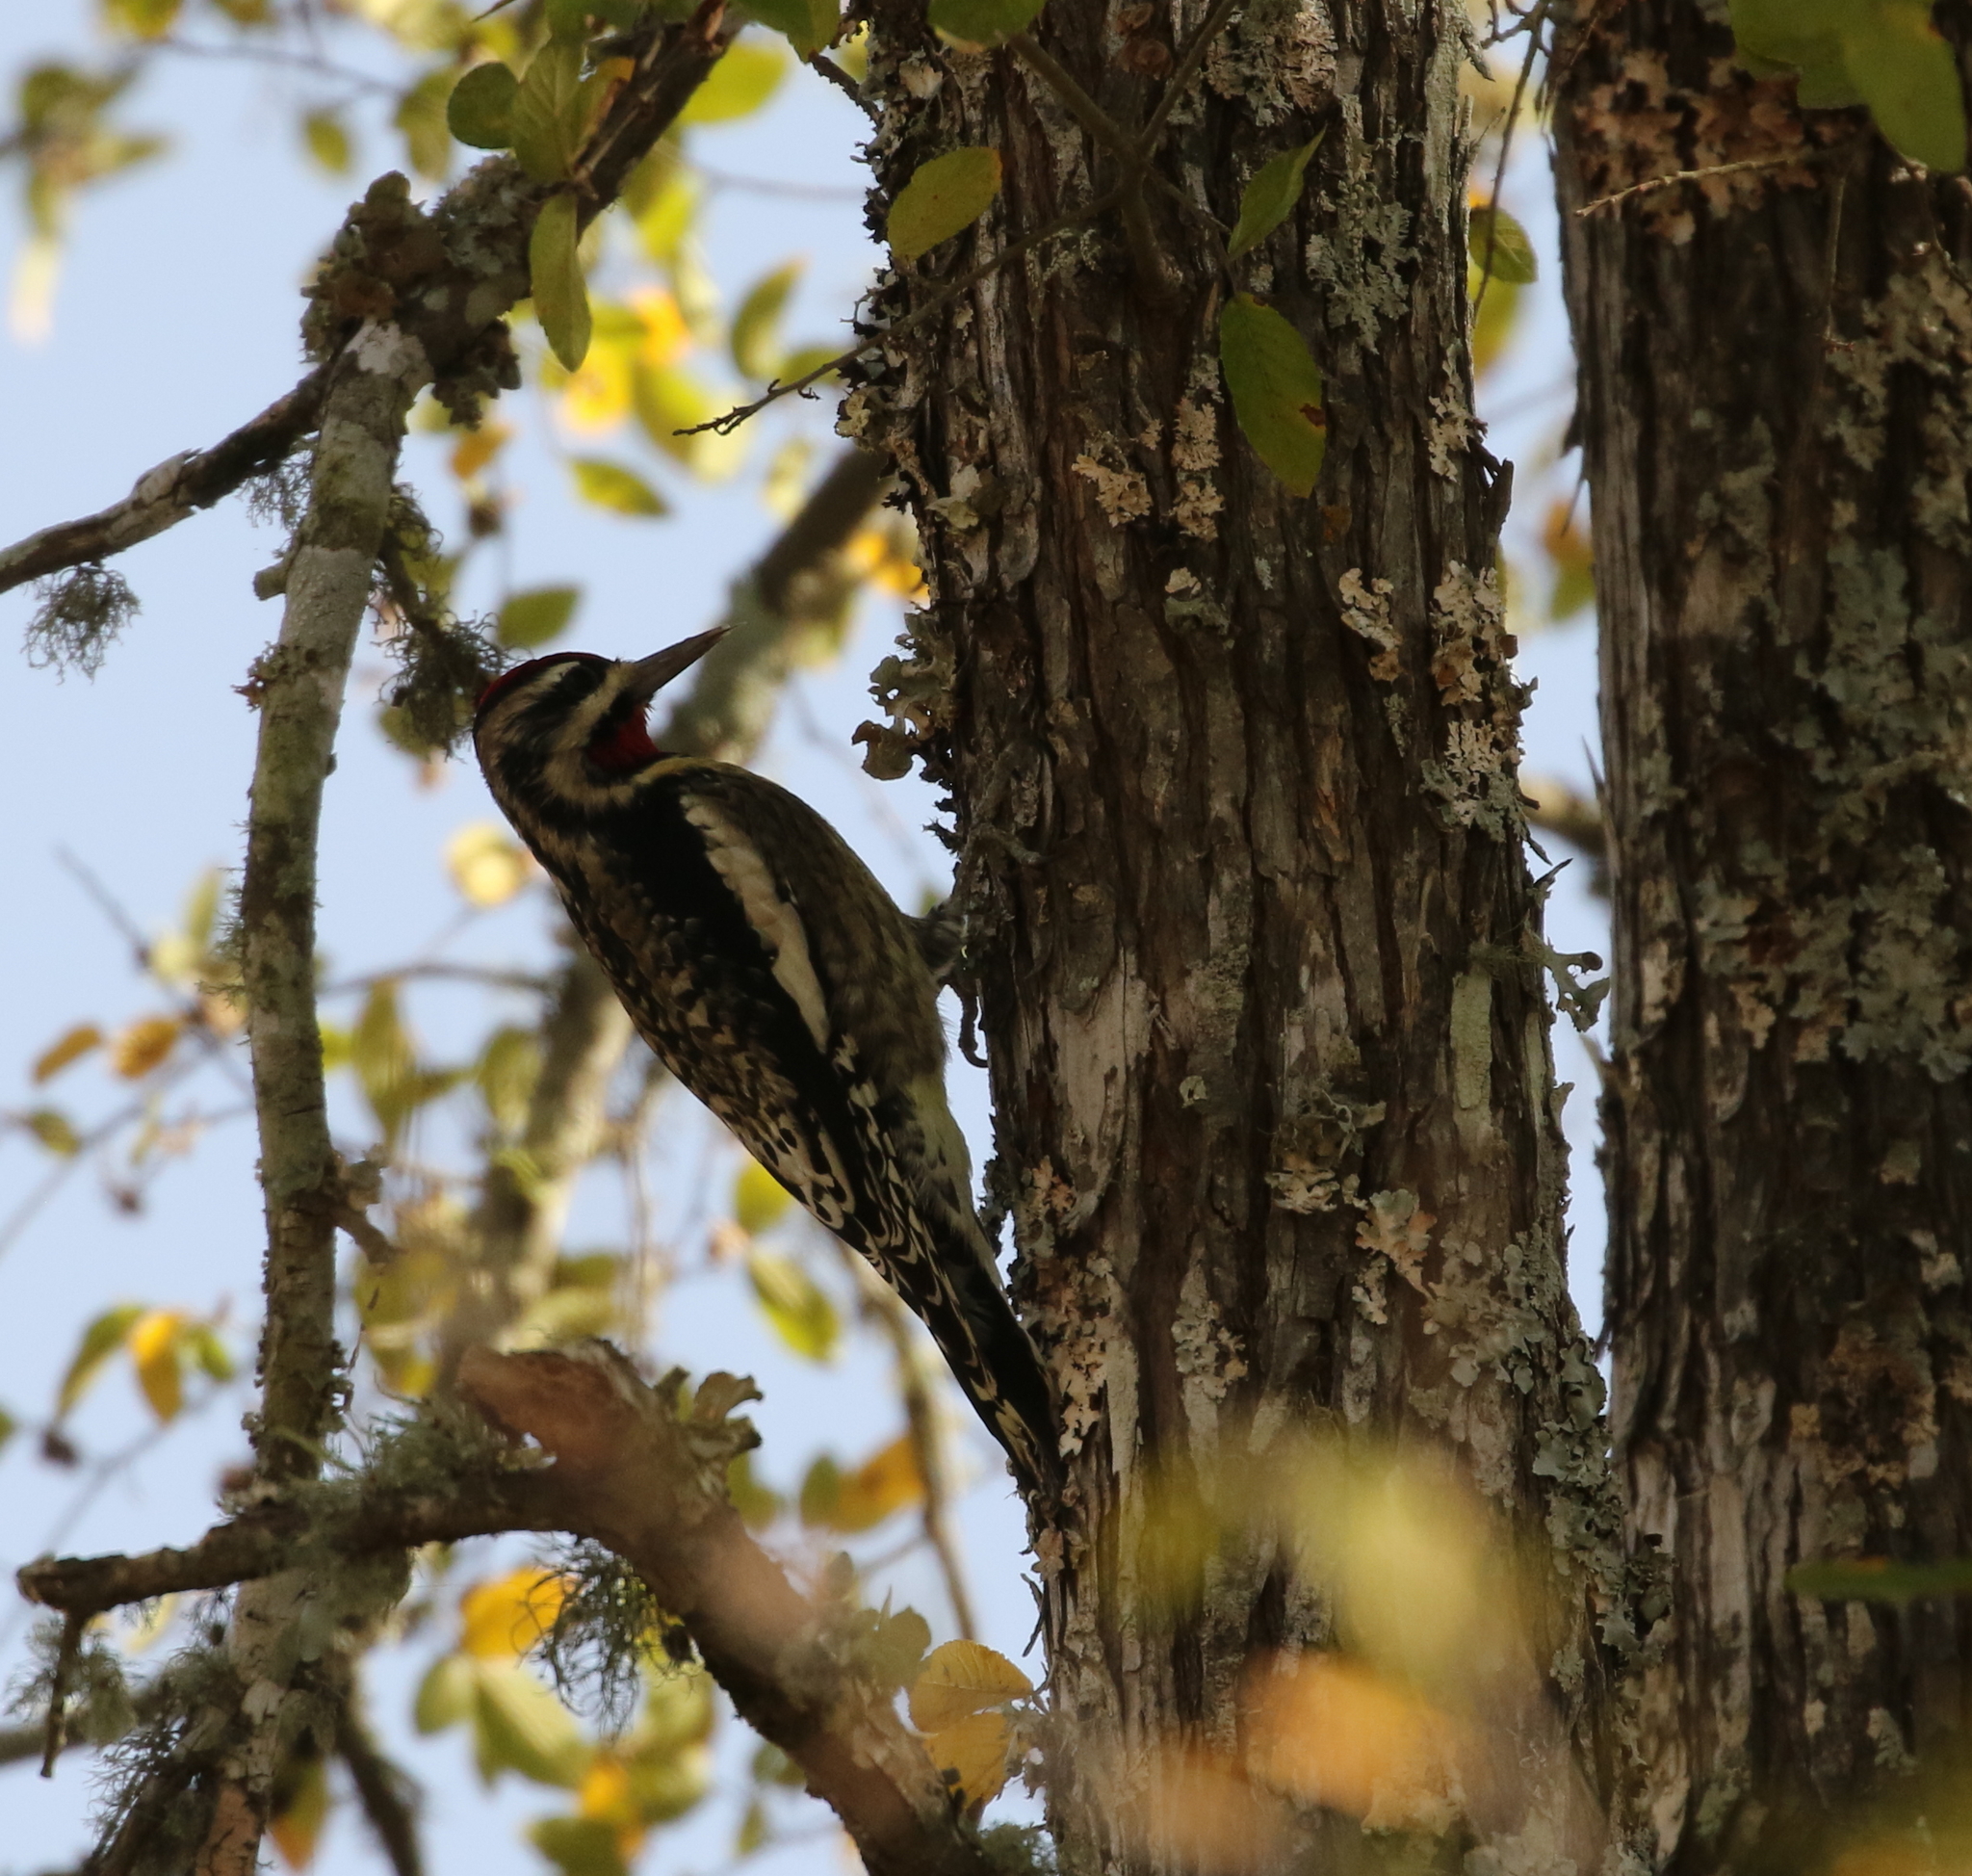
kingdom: Animalia
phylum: Chordata
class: Aves
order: Piciformes
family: Picidae
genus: Sphyrapicus
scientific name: Sphyrapicus varius
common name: Yellow-bellied sapsucker
